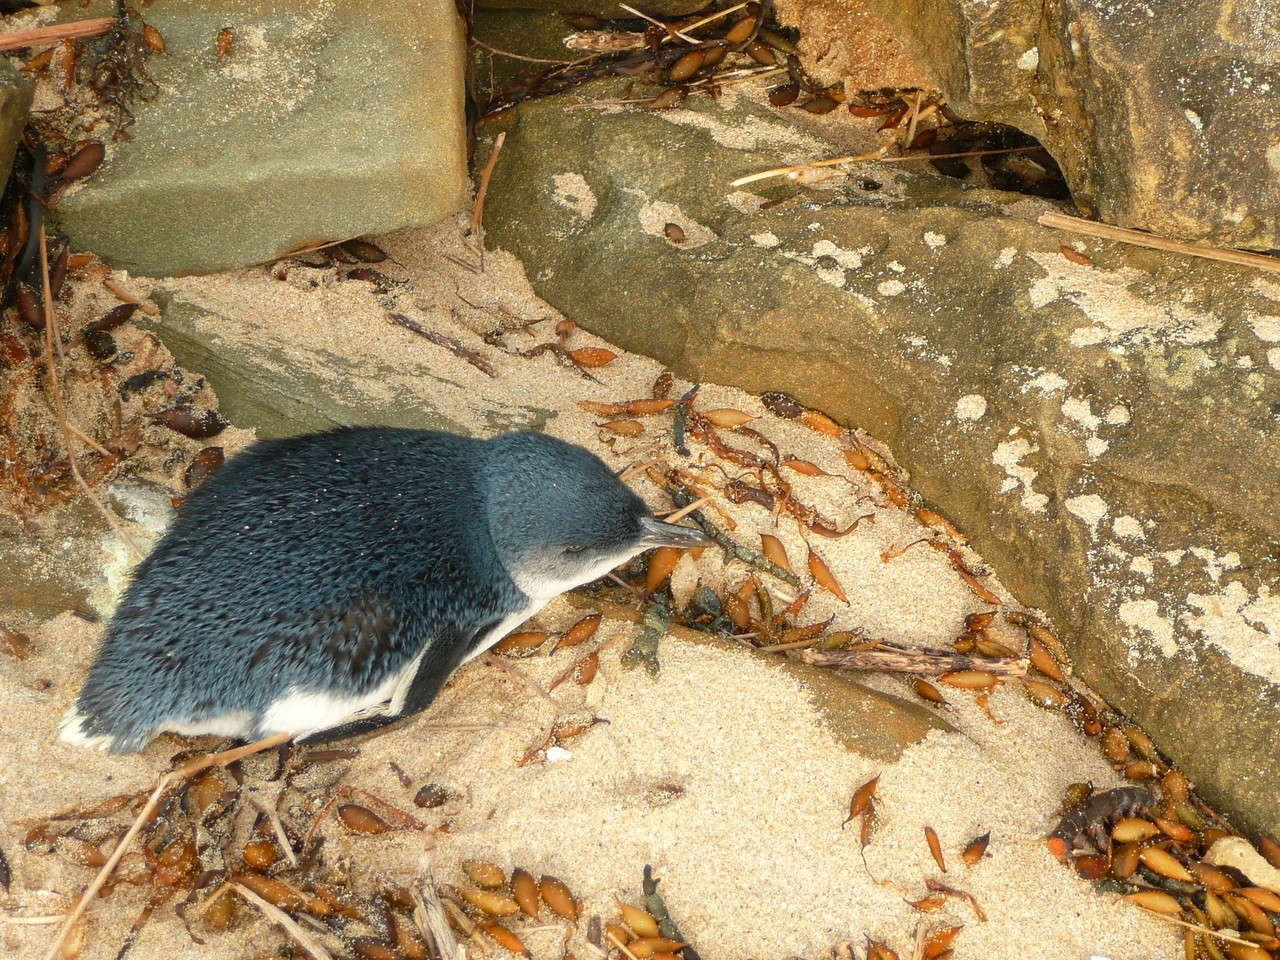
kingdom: Animalia
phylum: Chordata
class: Aves
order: Sphenisciformes
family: Spheniscidae
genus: Eudyptula
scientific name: Eudyptula minor
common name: Little penguin
